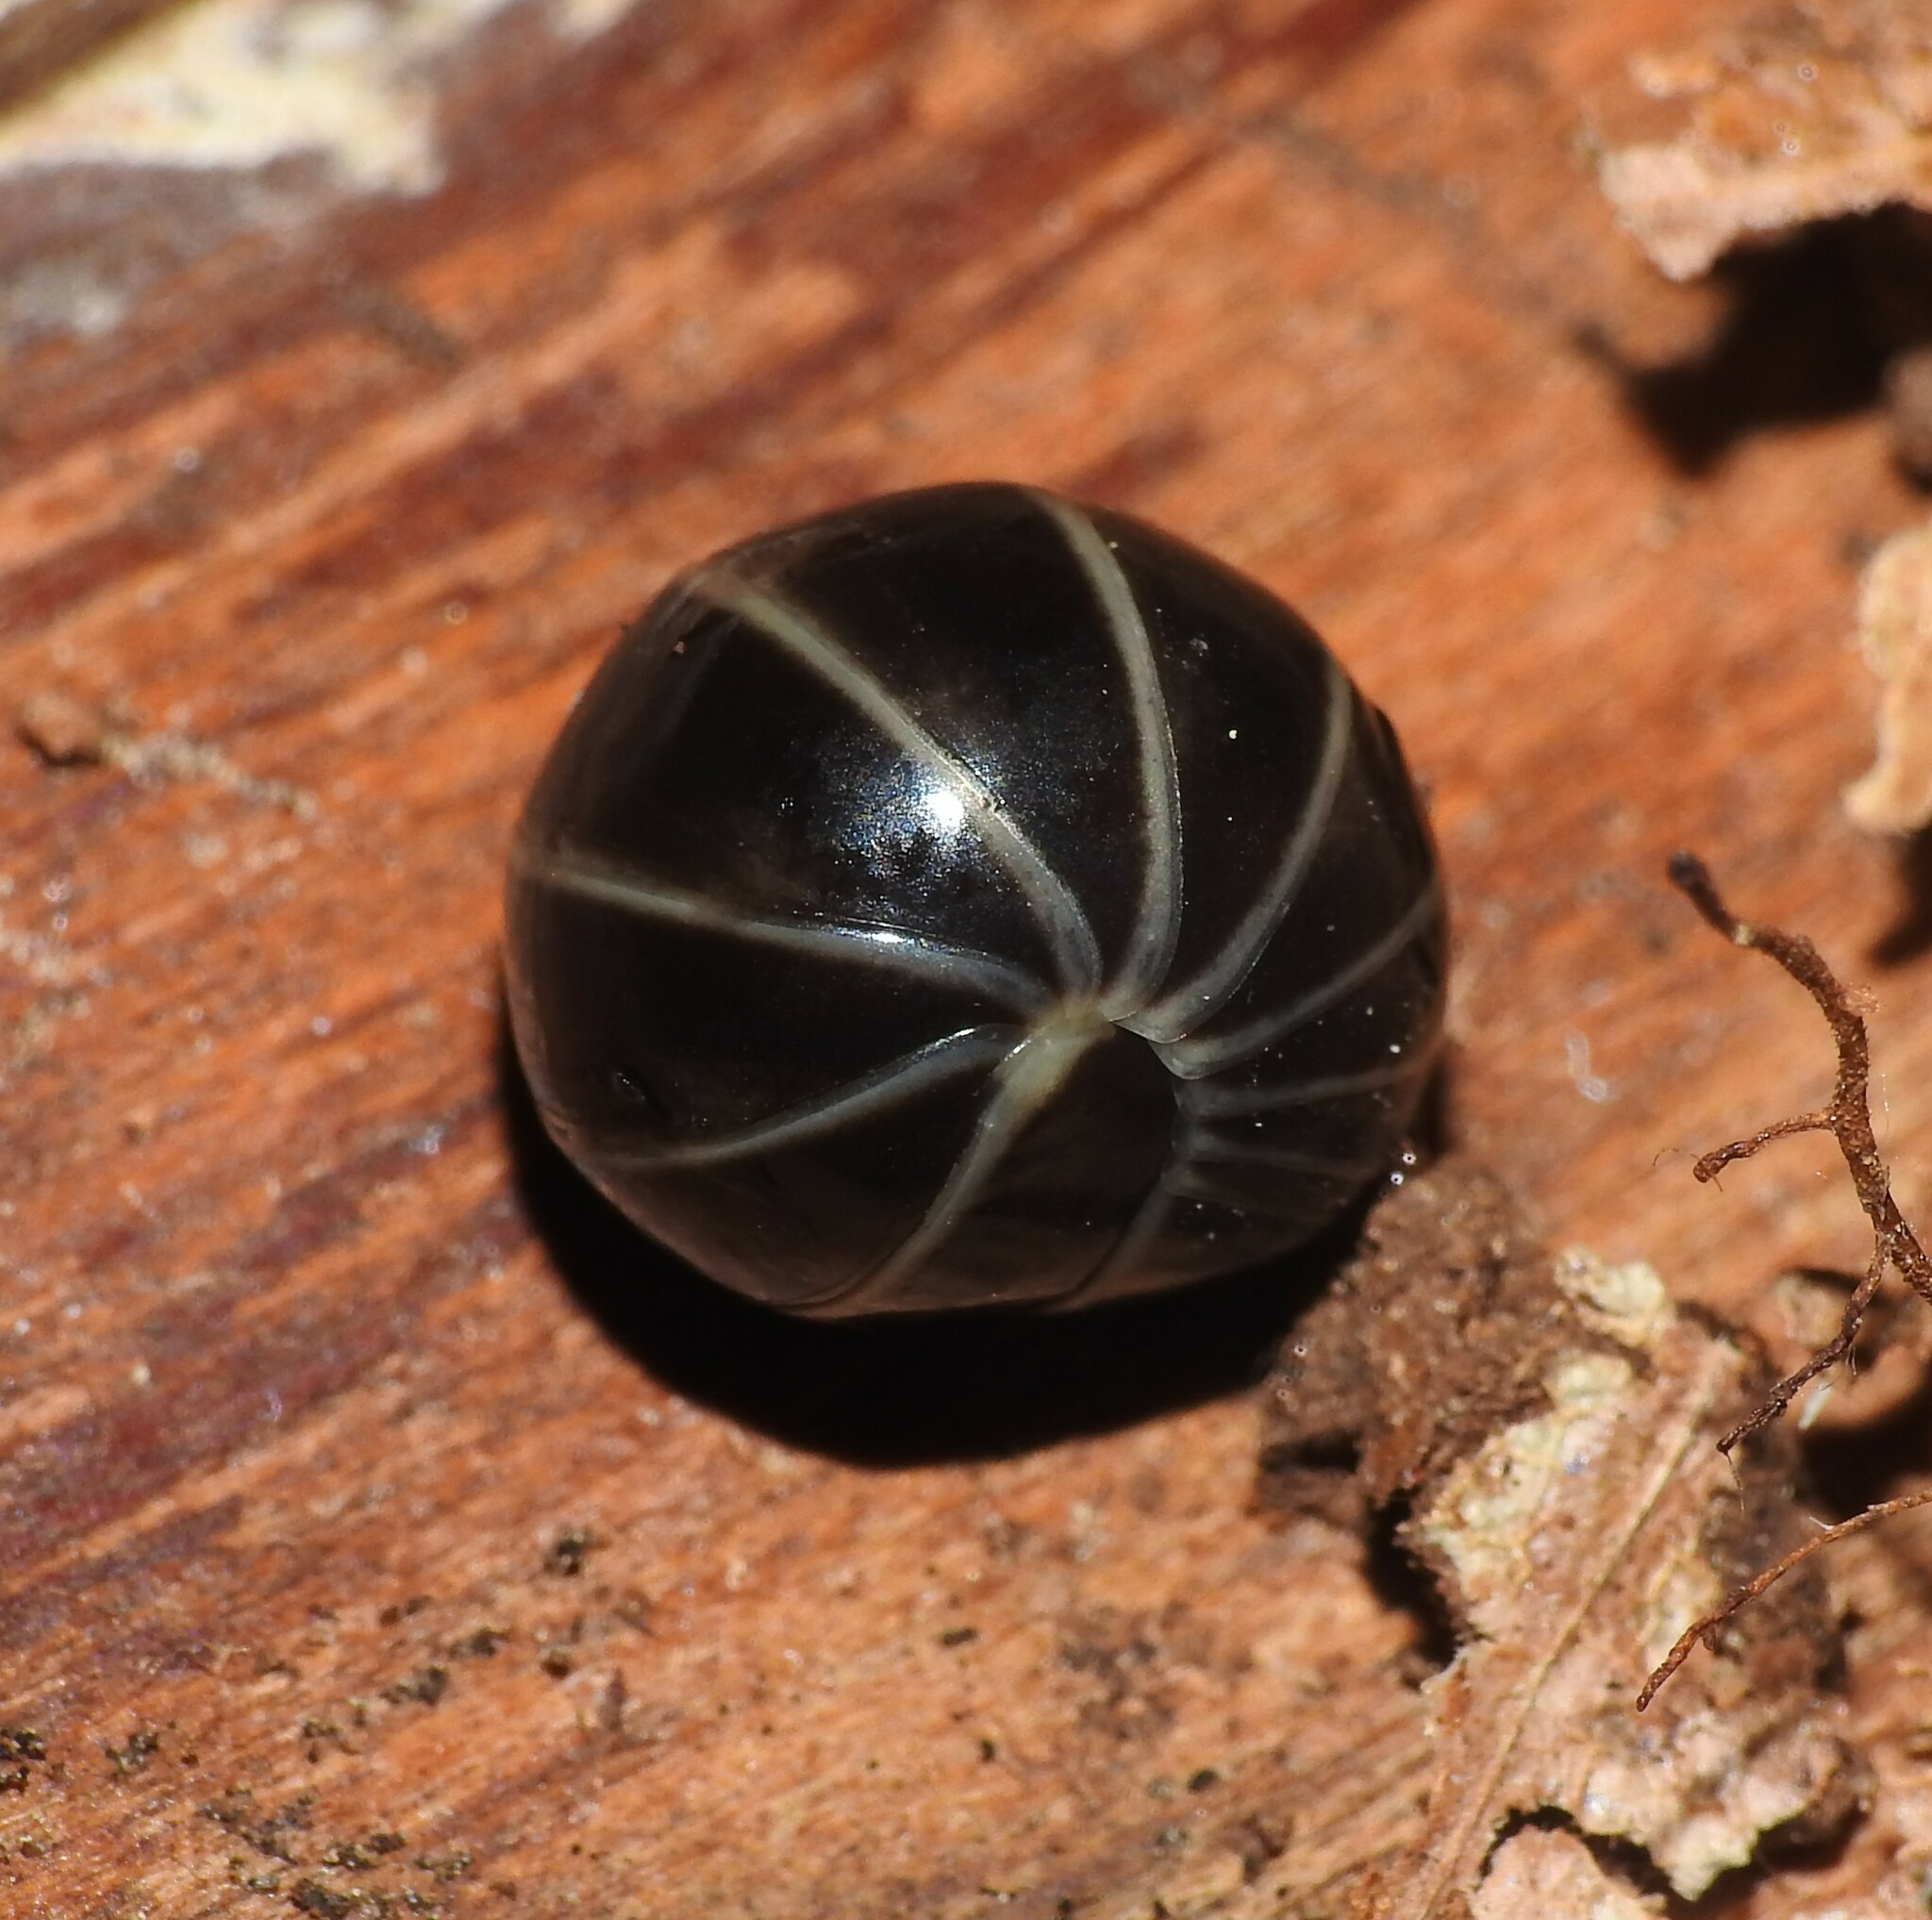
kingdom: Animalia
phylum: Arthropoda
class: Diplopoda
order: Glomerida
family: Glomeridae
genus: Glomeris
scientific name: Glomeris marginata
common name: Bordered pill millipede
